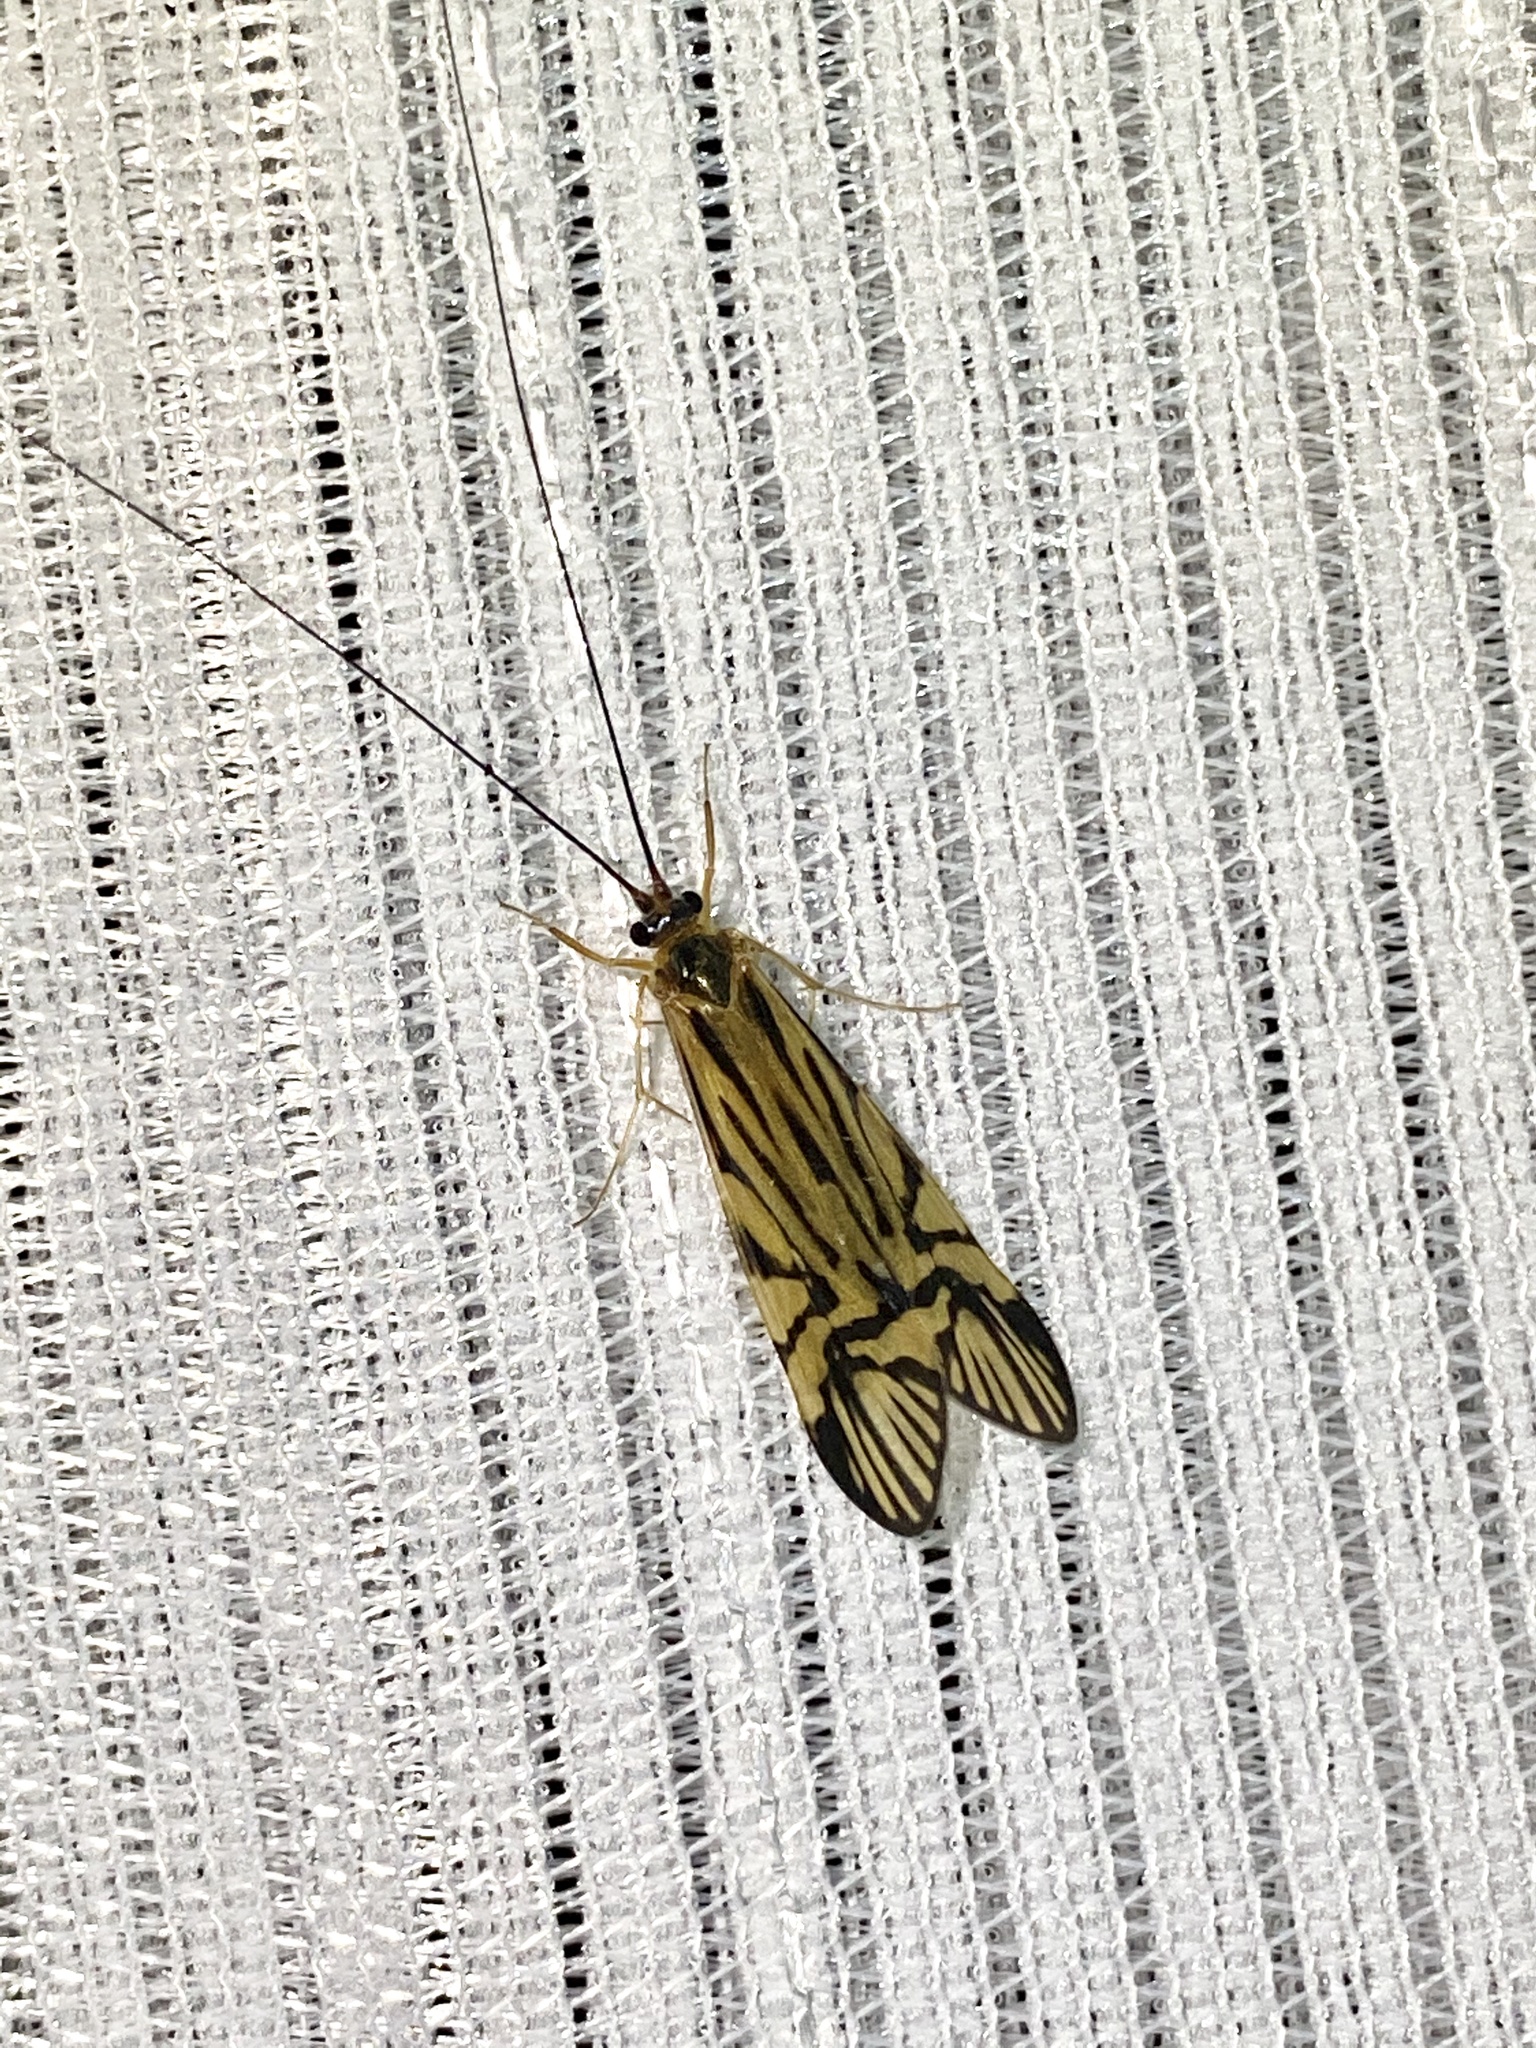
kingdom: Animalia
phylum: Arthropoda
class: Insecta
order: Trichoptera
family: Hydropsychidae
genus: Macrostemum
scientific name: Macrostemum radiatum
